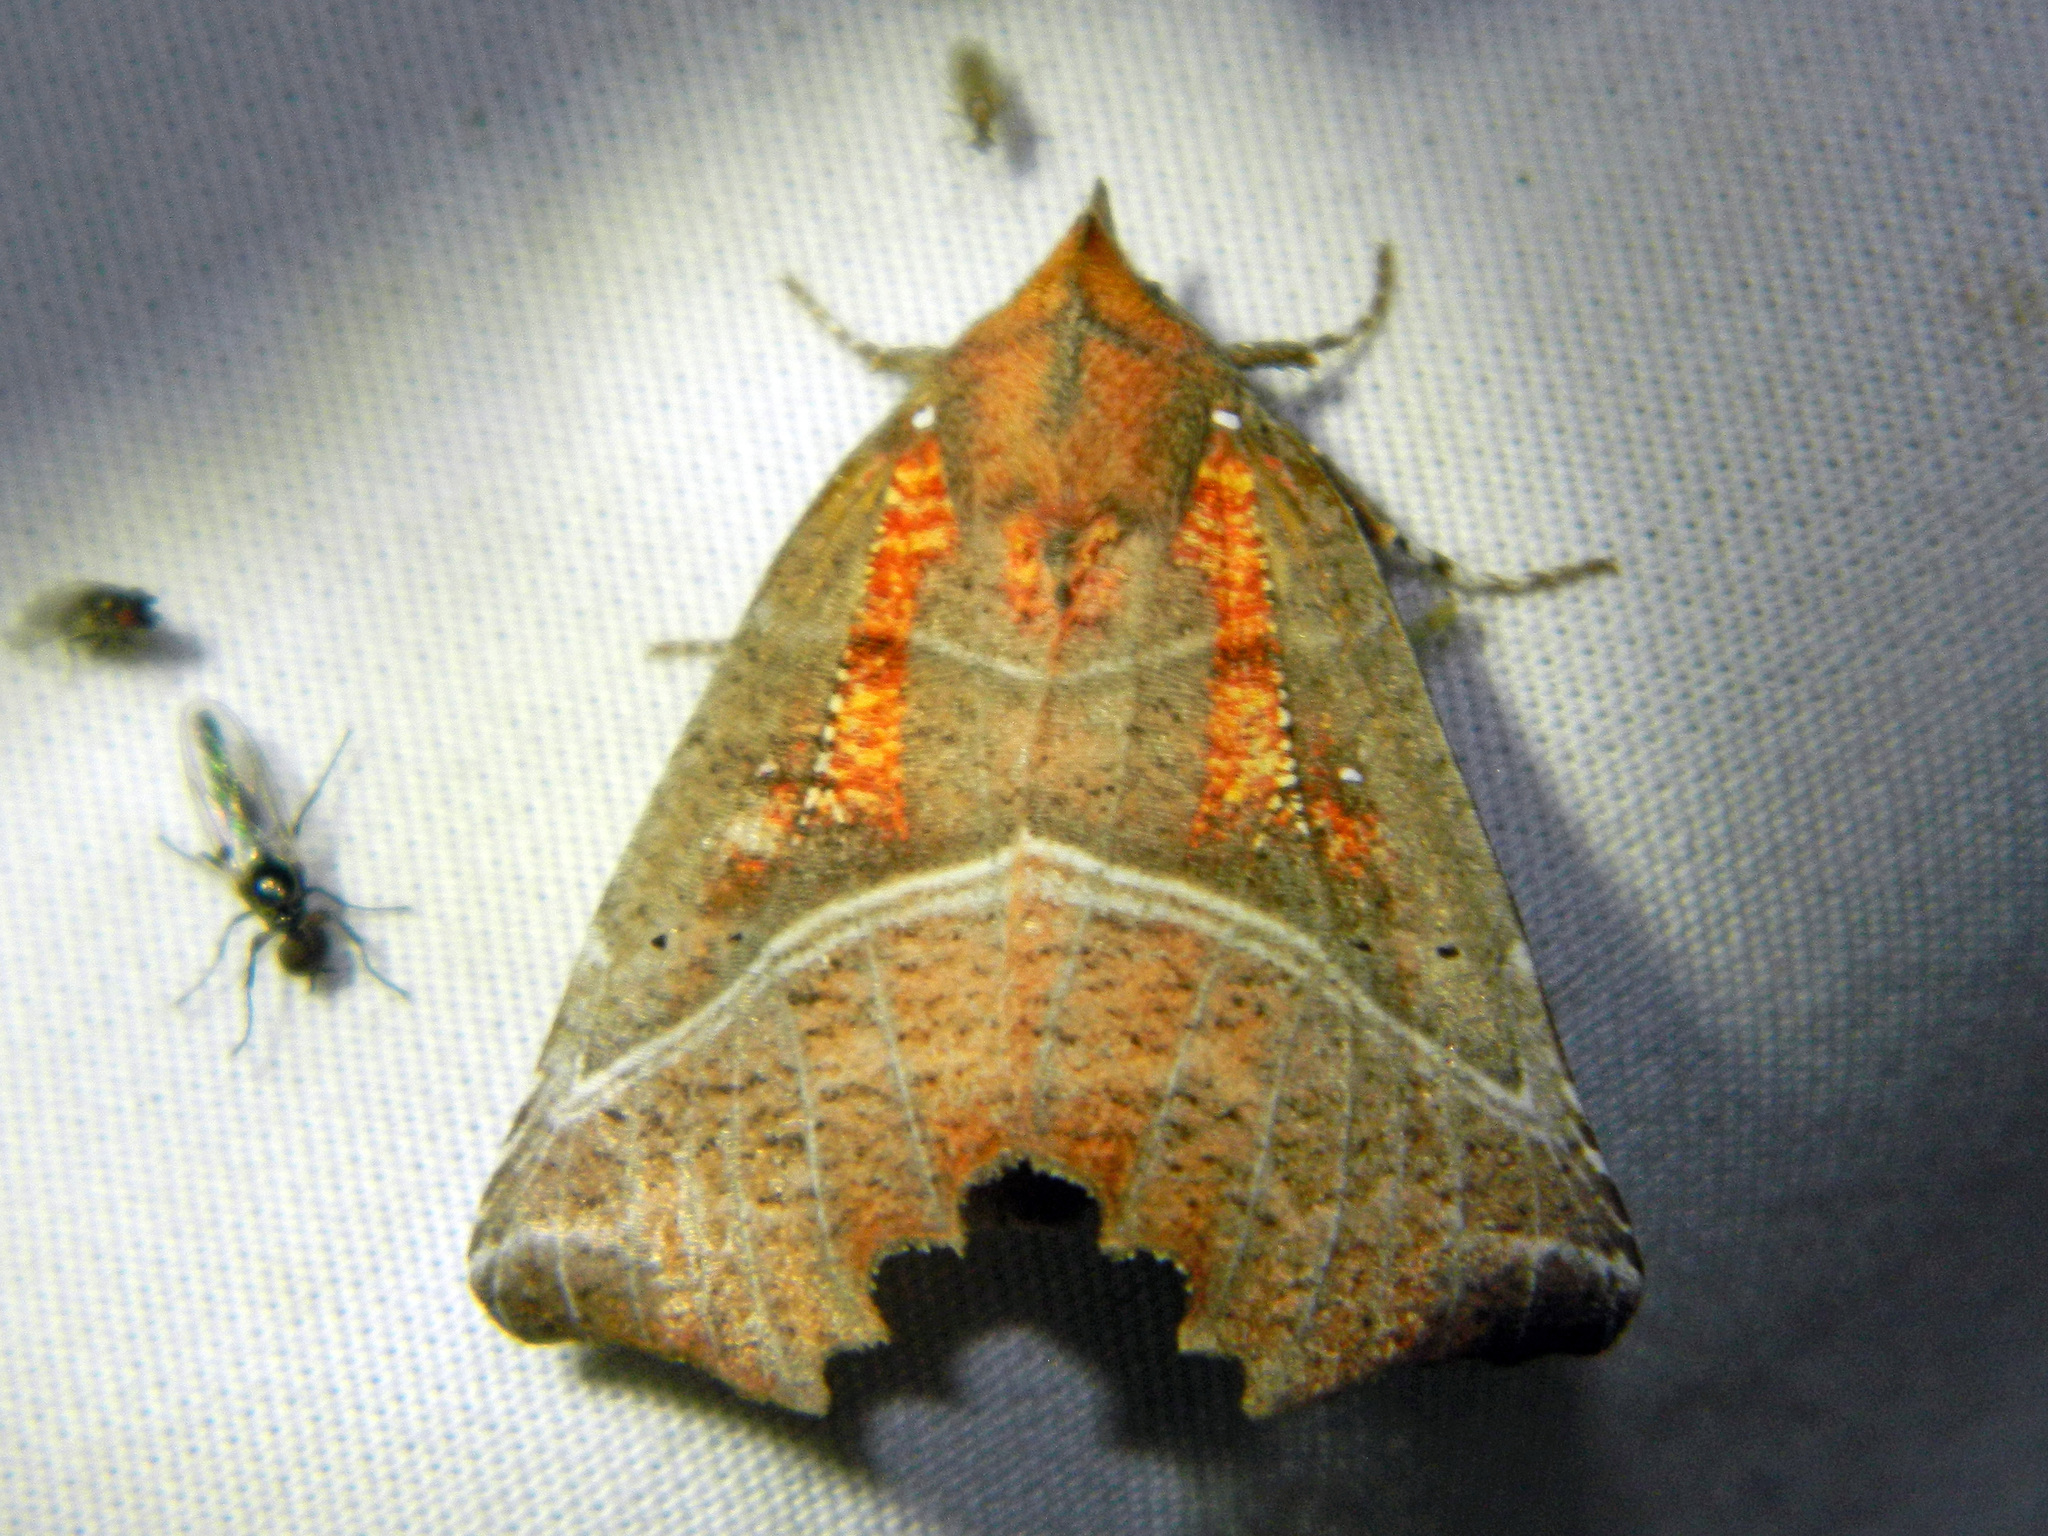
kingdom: Animalia
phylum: Arthropoda
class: Insecta
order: Lepidoptera
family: Erebidae
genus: Scoliopteryx
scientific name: Scoliopteryx libatrix
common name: Herald
